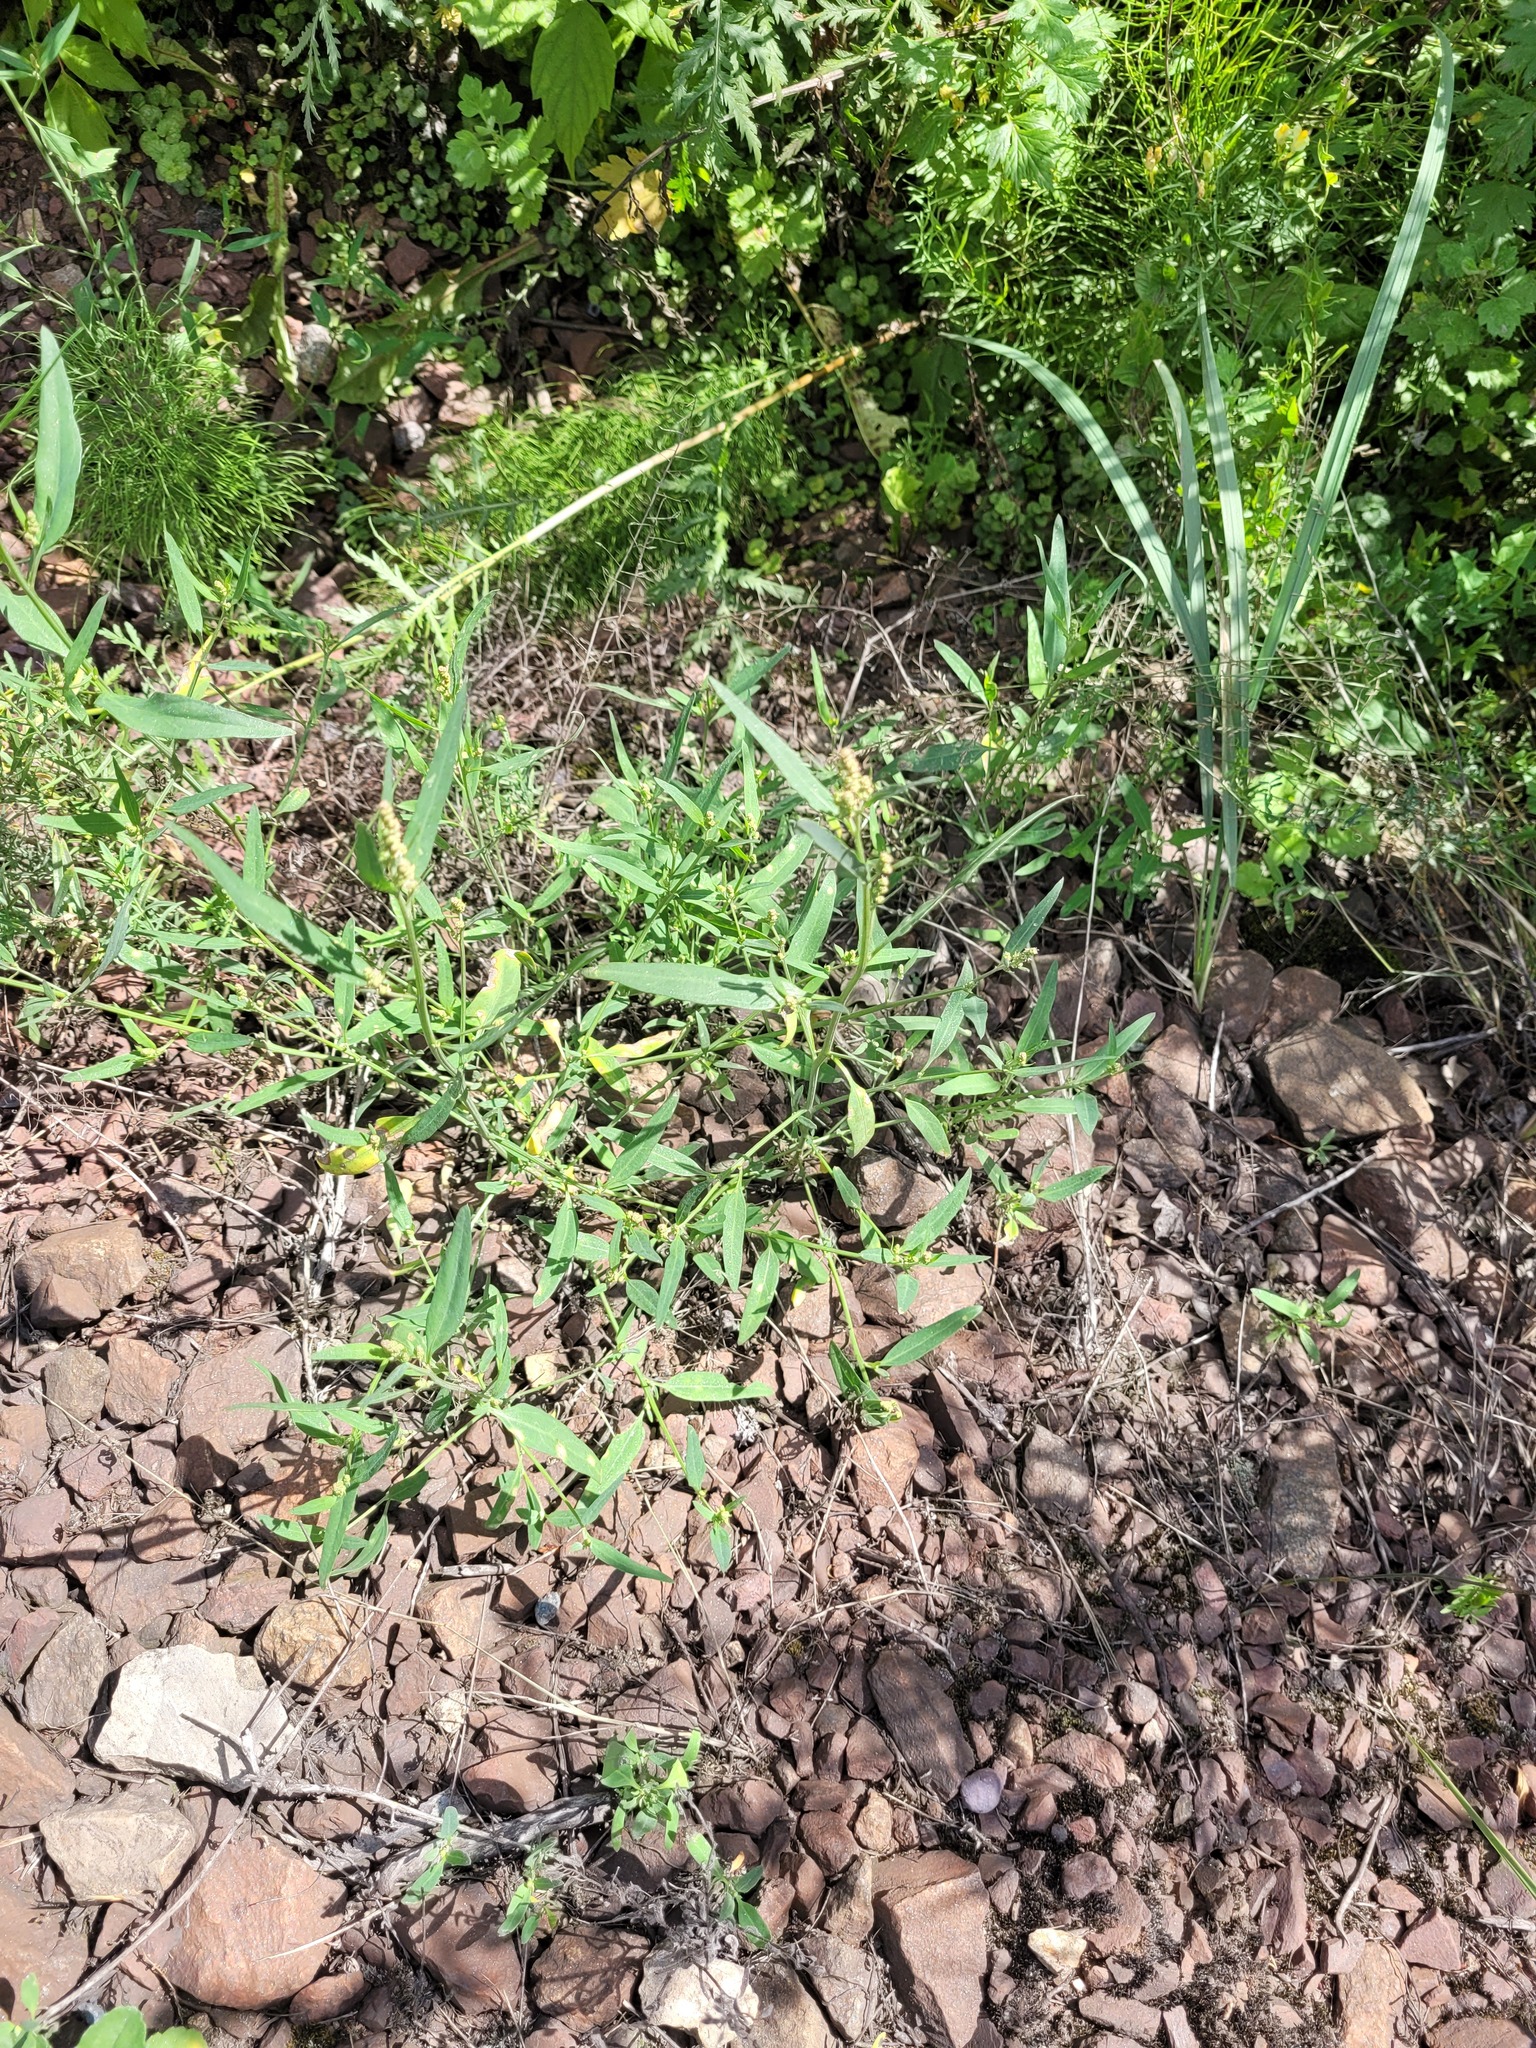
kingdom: Plantae
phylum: Tracheophyta
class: Magnoliopsida
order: Caryophyllales
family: Amaranthaceae
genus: Atriplex
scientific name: Atriplex patula
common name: Common orache
